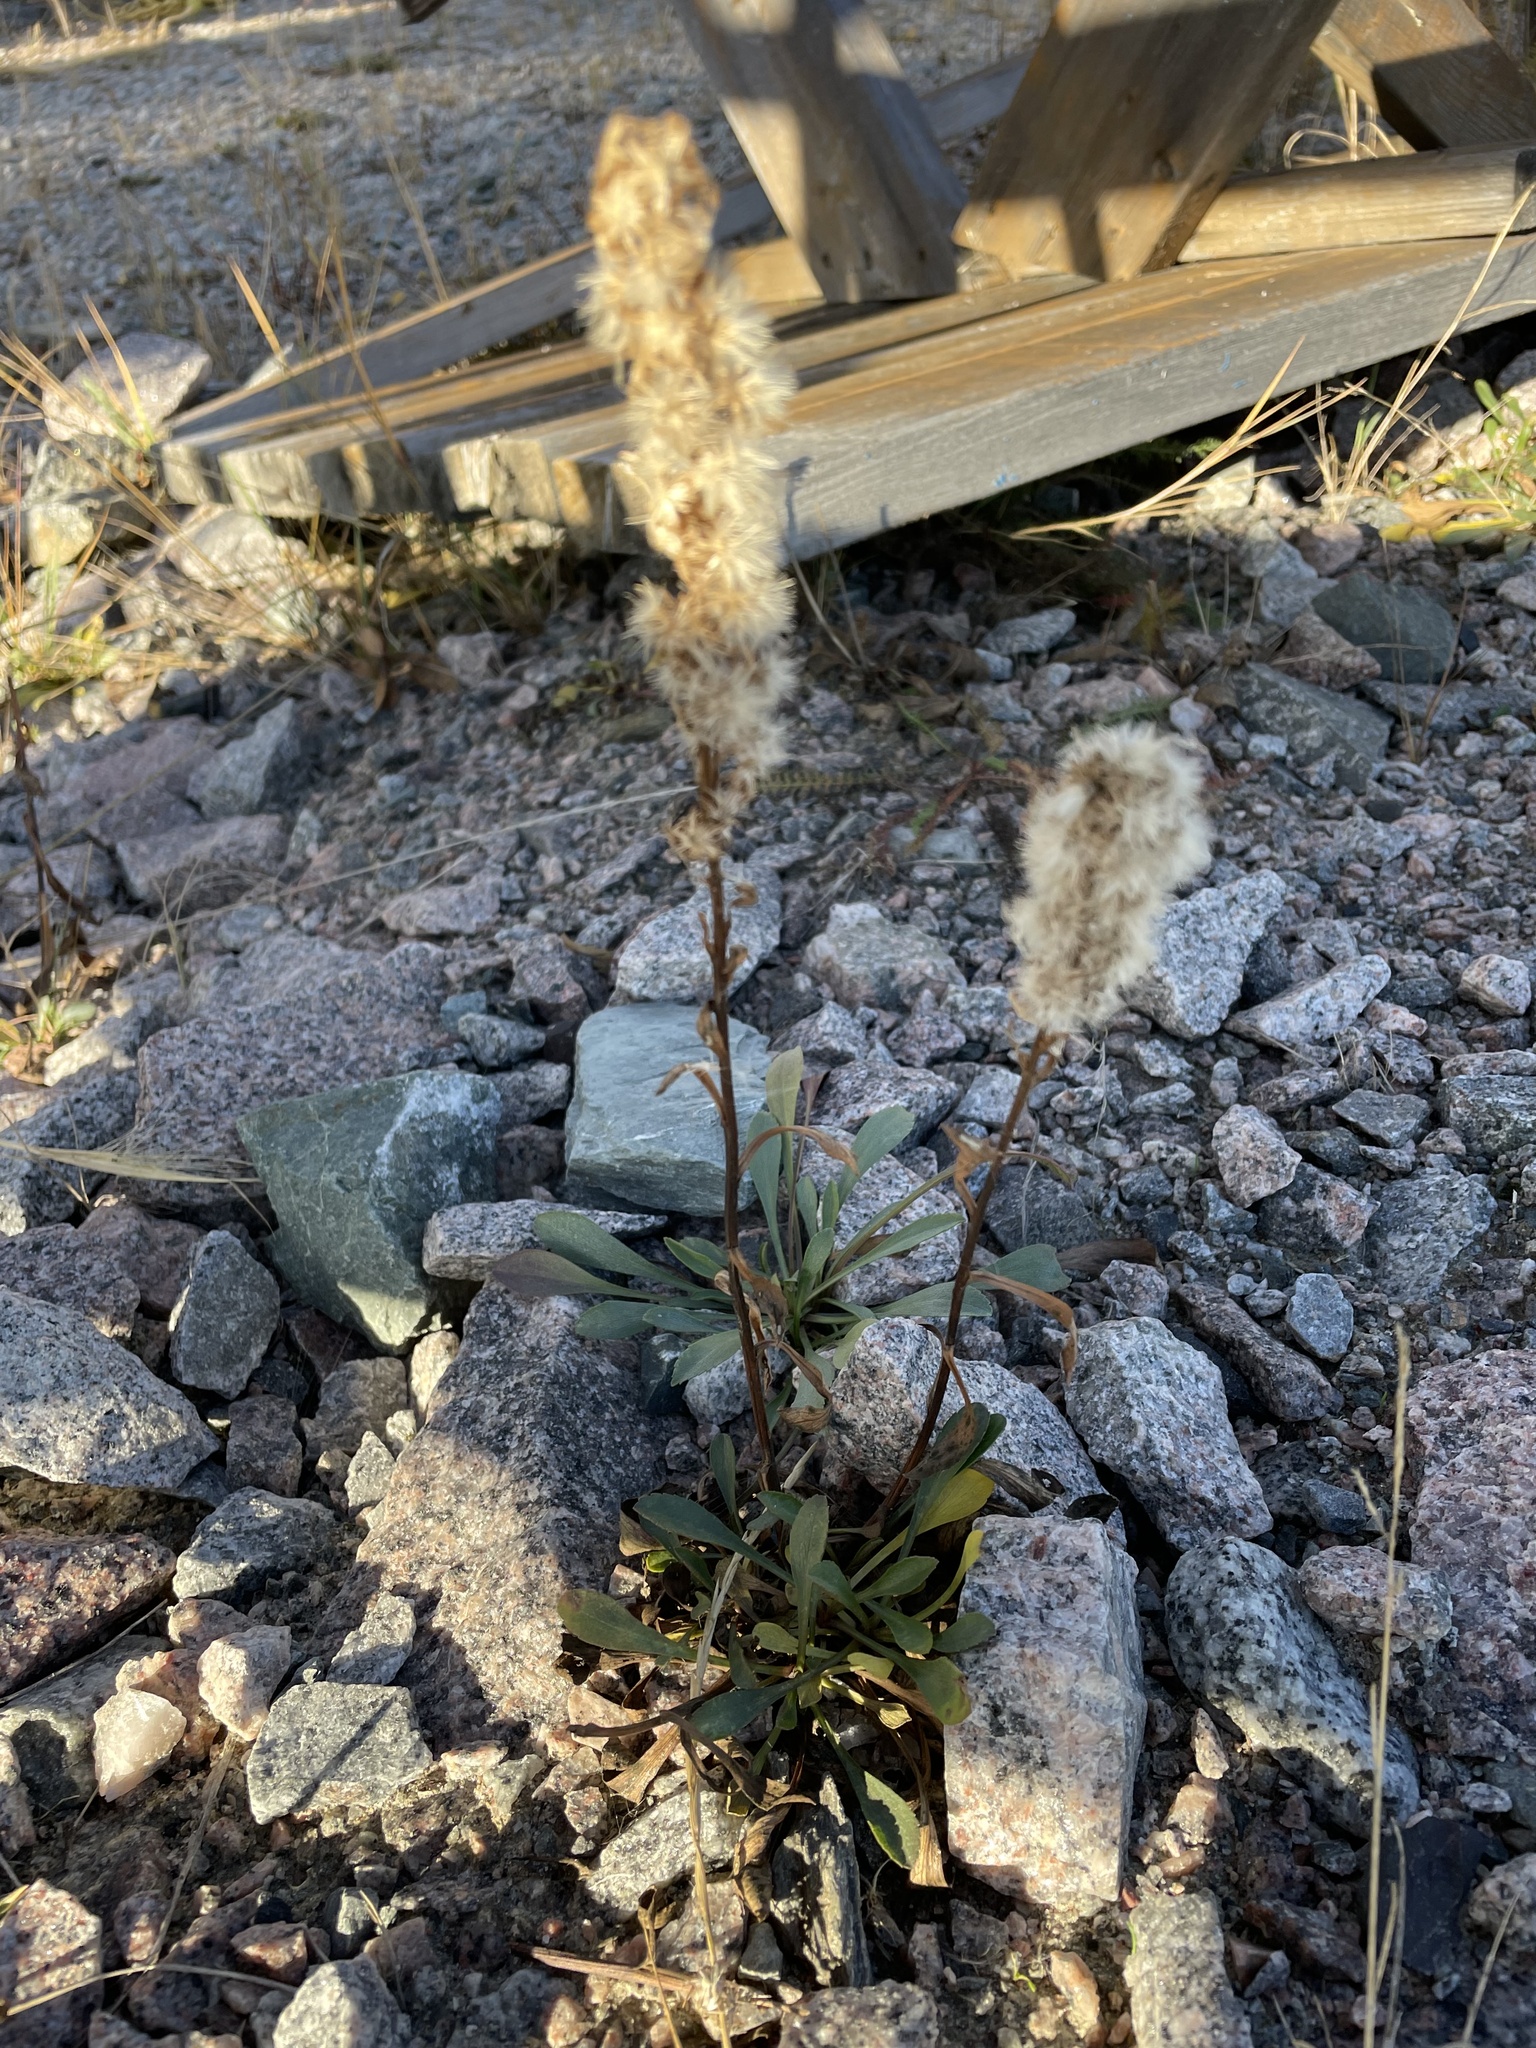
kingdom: Plantae
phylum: Tracheophyta
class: Magnoliopsida
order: Asterales
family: Asteraceae
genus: Solidago
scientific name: Solidago glutinosa
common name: Decumbent goldenrod
